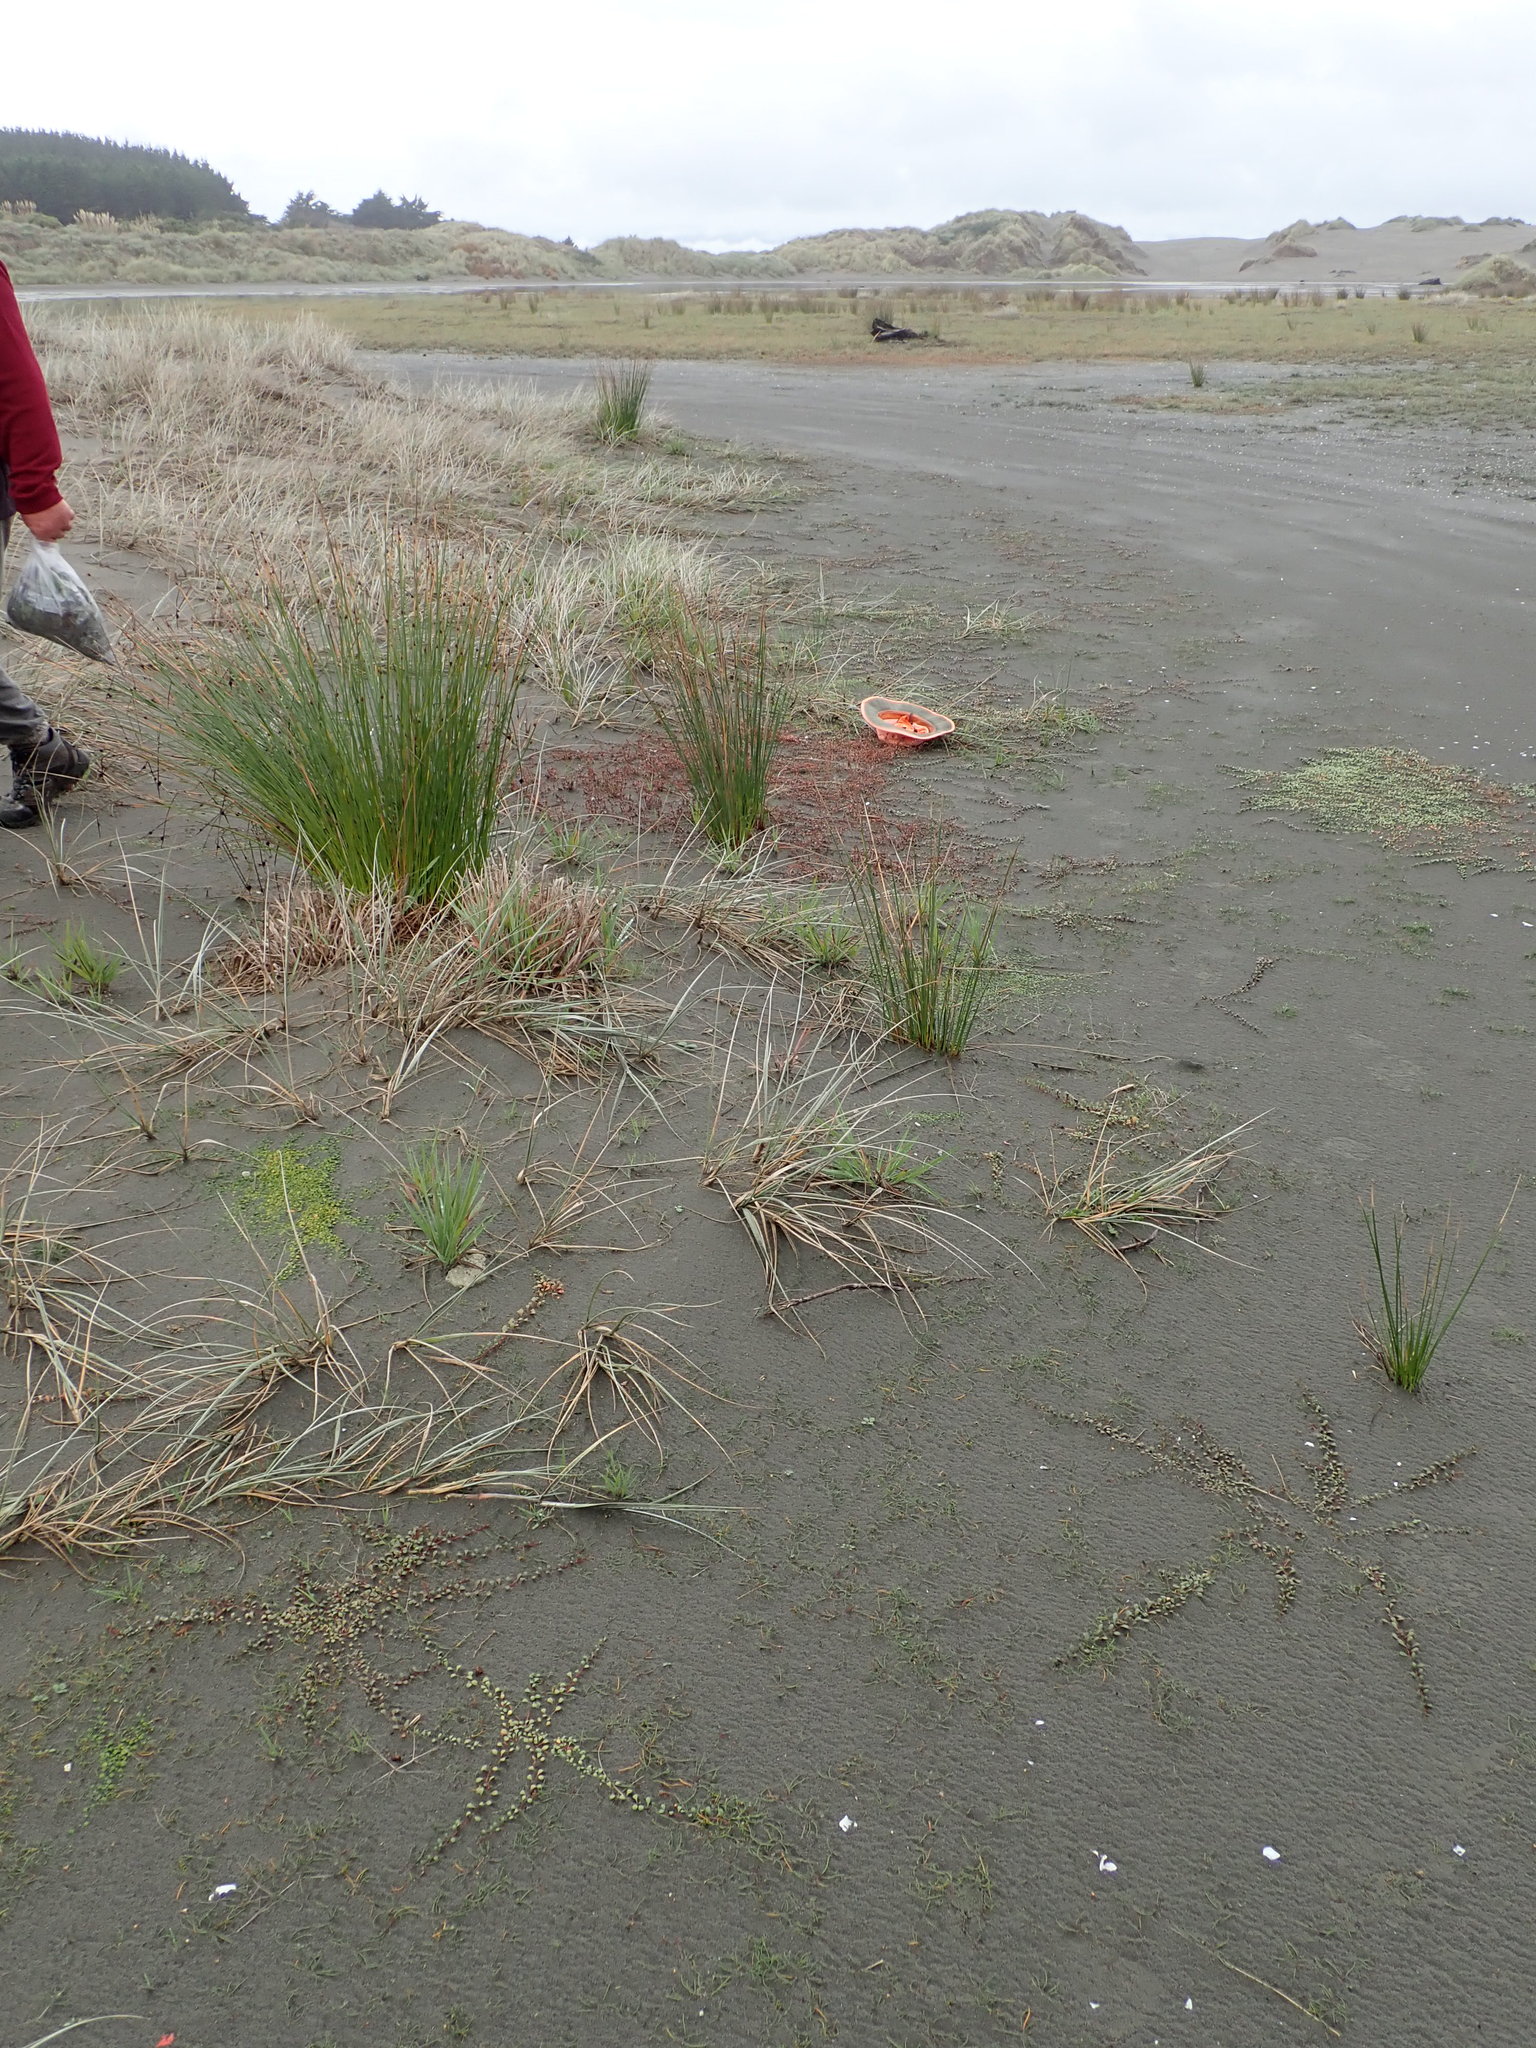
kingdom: Plantae
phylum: Tracheophyta
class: Magnoliopsida
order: Ericales
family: Primulaceae
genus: Samolus
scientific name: Samolus repens
